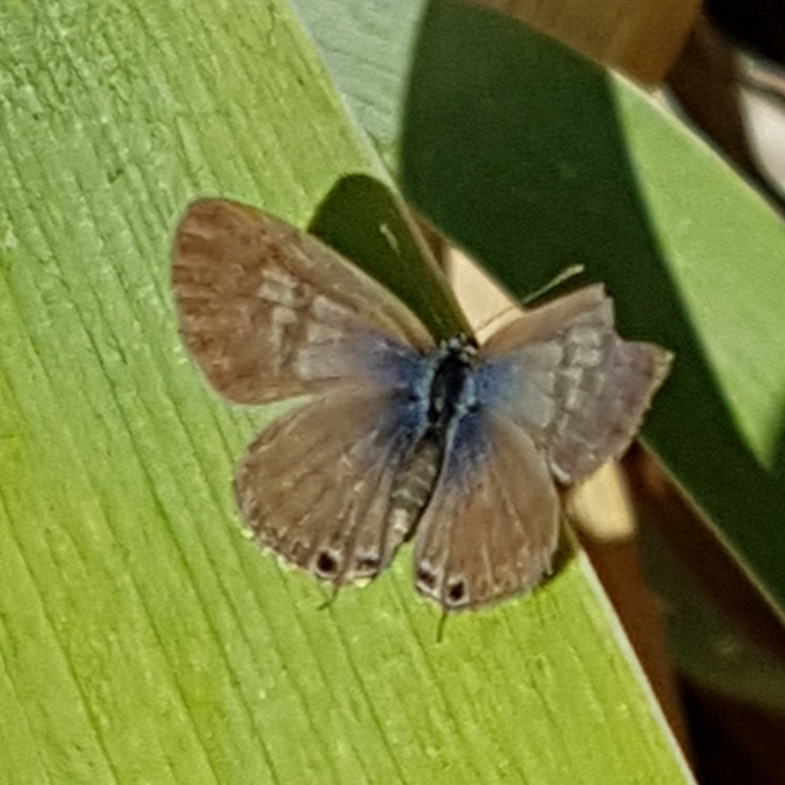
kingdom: Animalia
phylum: Arthropoda
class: Insecta
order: Lepidoptera
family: Lycaenidae
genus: Leptotes
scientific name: Leptotes pirithous
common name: Lang's short-tailed blue
